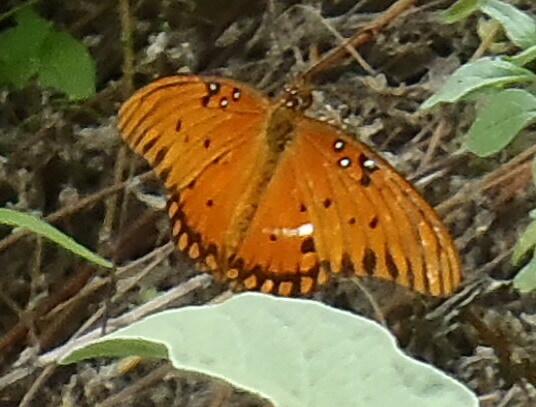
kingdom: Animalia
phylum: Arthropoda
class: Insecta
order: Lepidoptera
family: Nymphalidae
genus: Dione
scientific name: Dione vanillae
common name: Gulf fritillary
